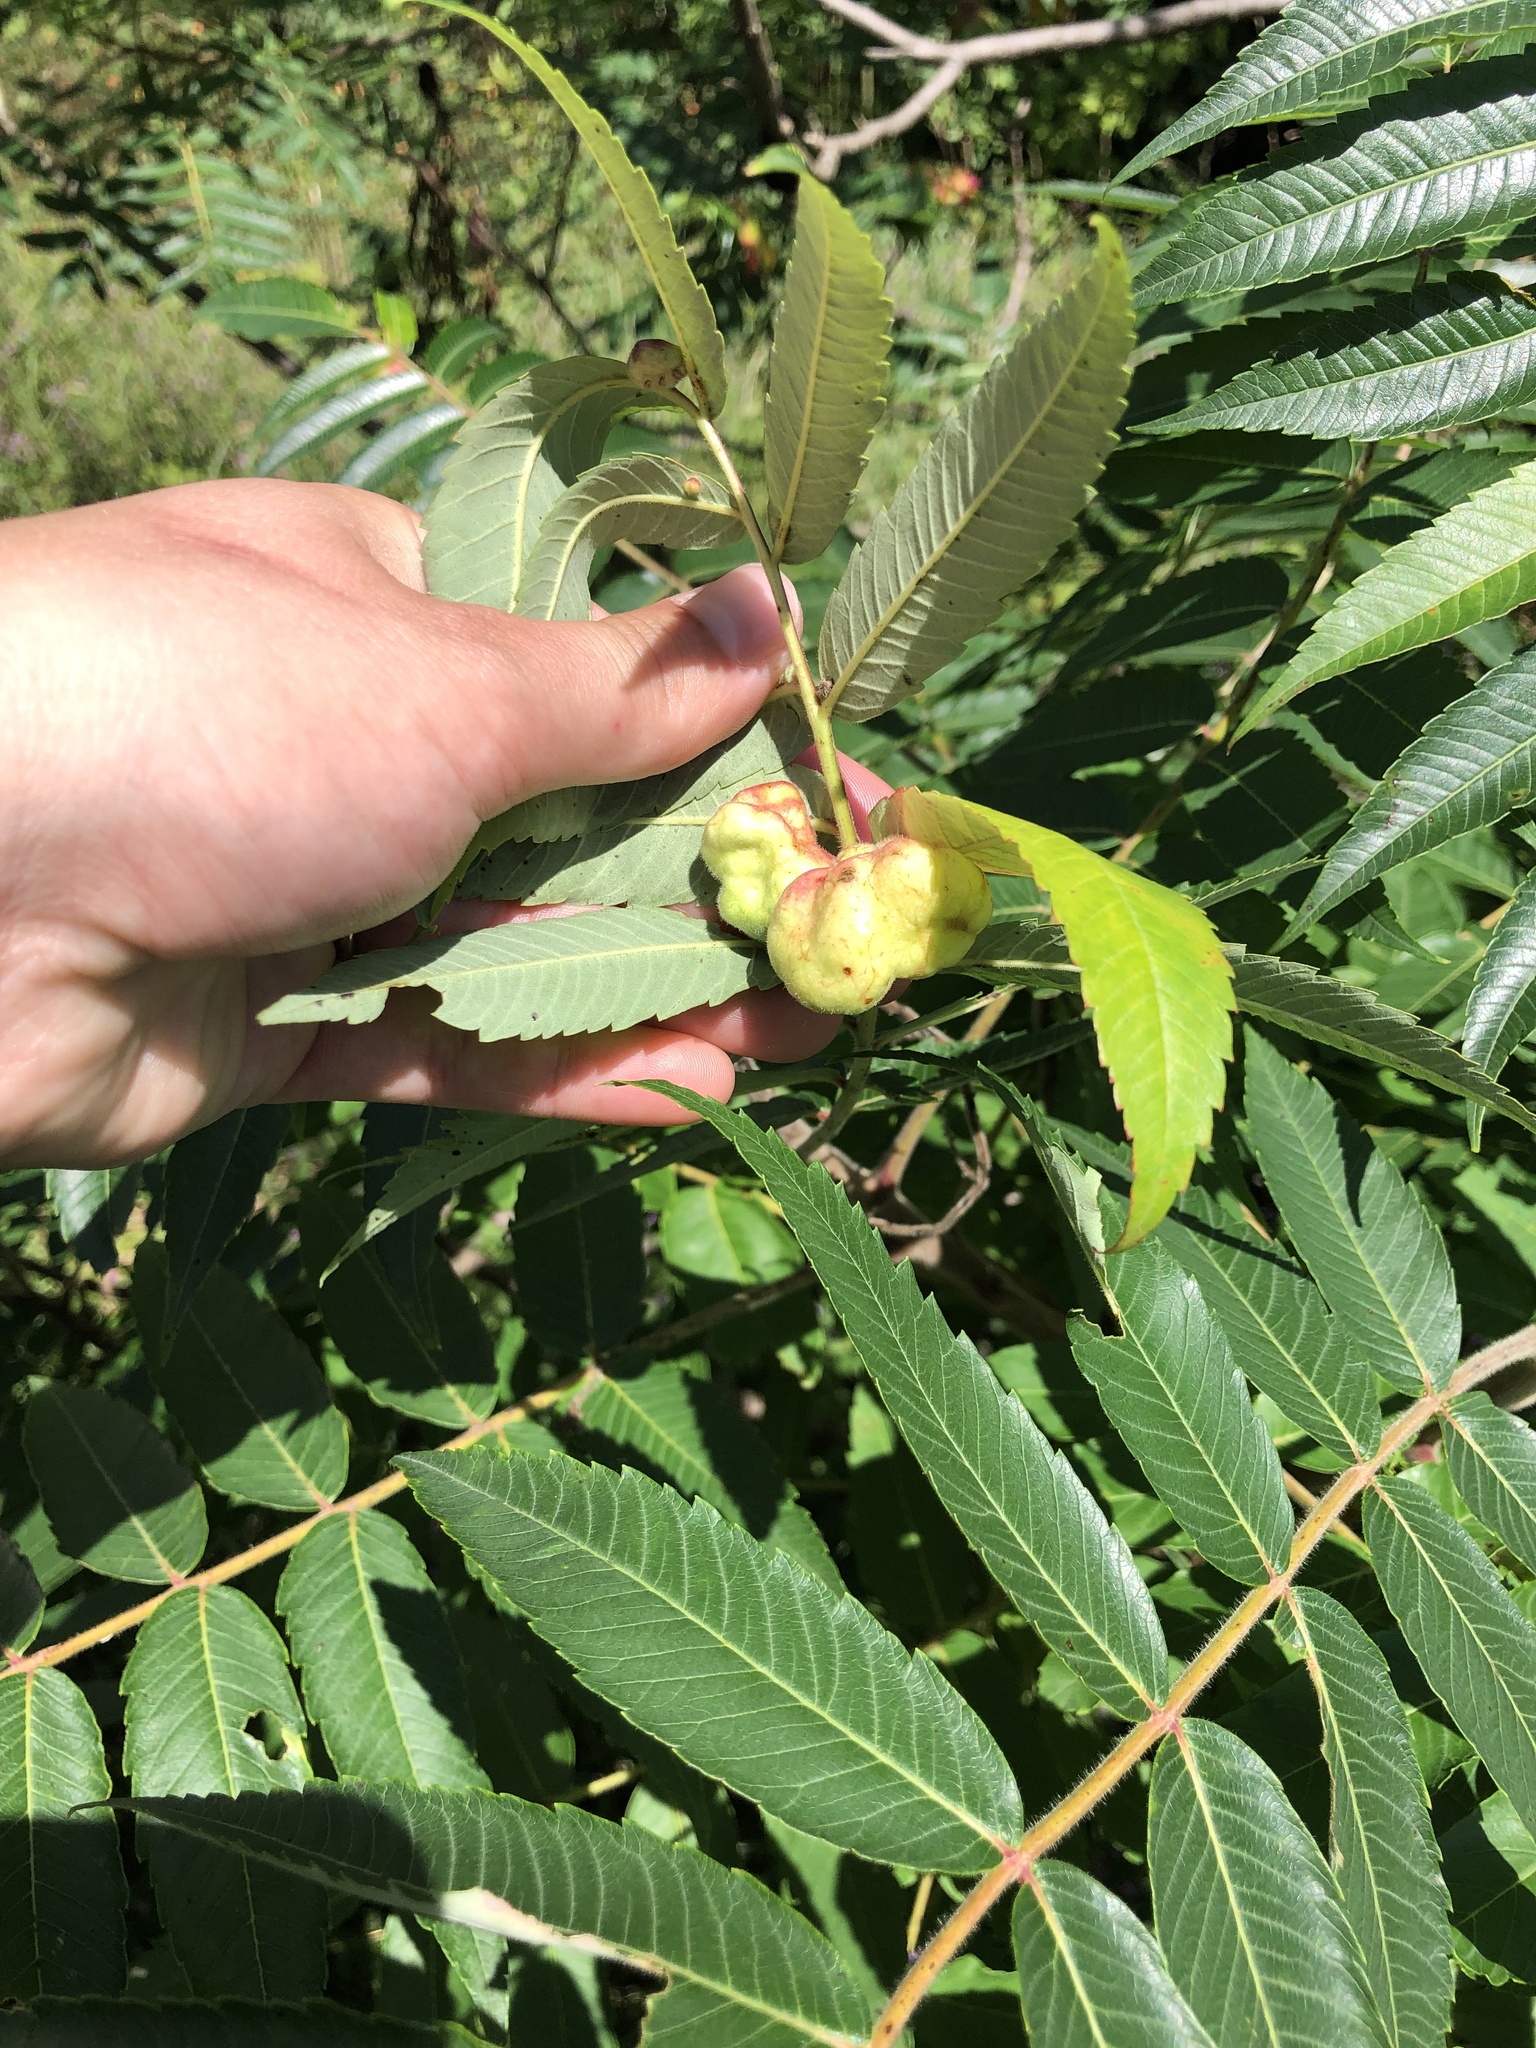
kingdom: Animalia
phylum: Arthropoda
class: Insecta
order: Hemiptera
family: Aphididae
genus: Melaphis
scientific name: Melaphis rhois
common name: Sumac gall aphid
